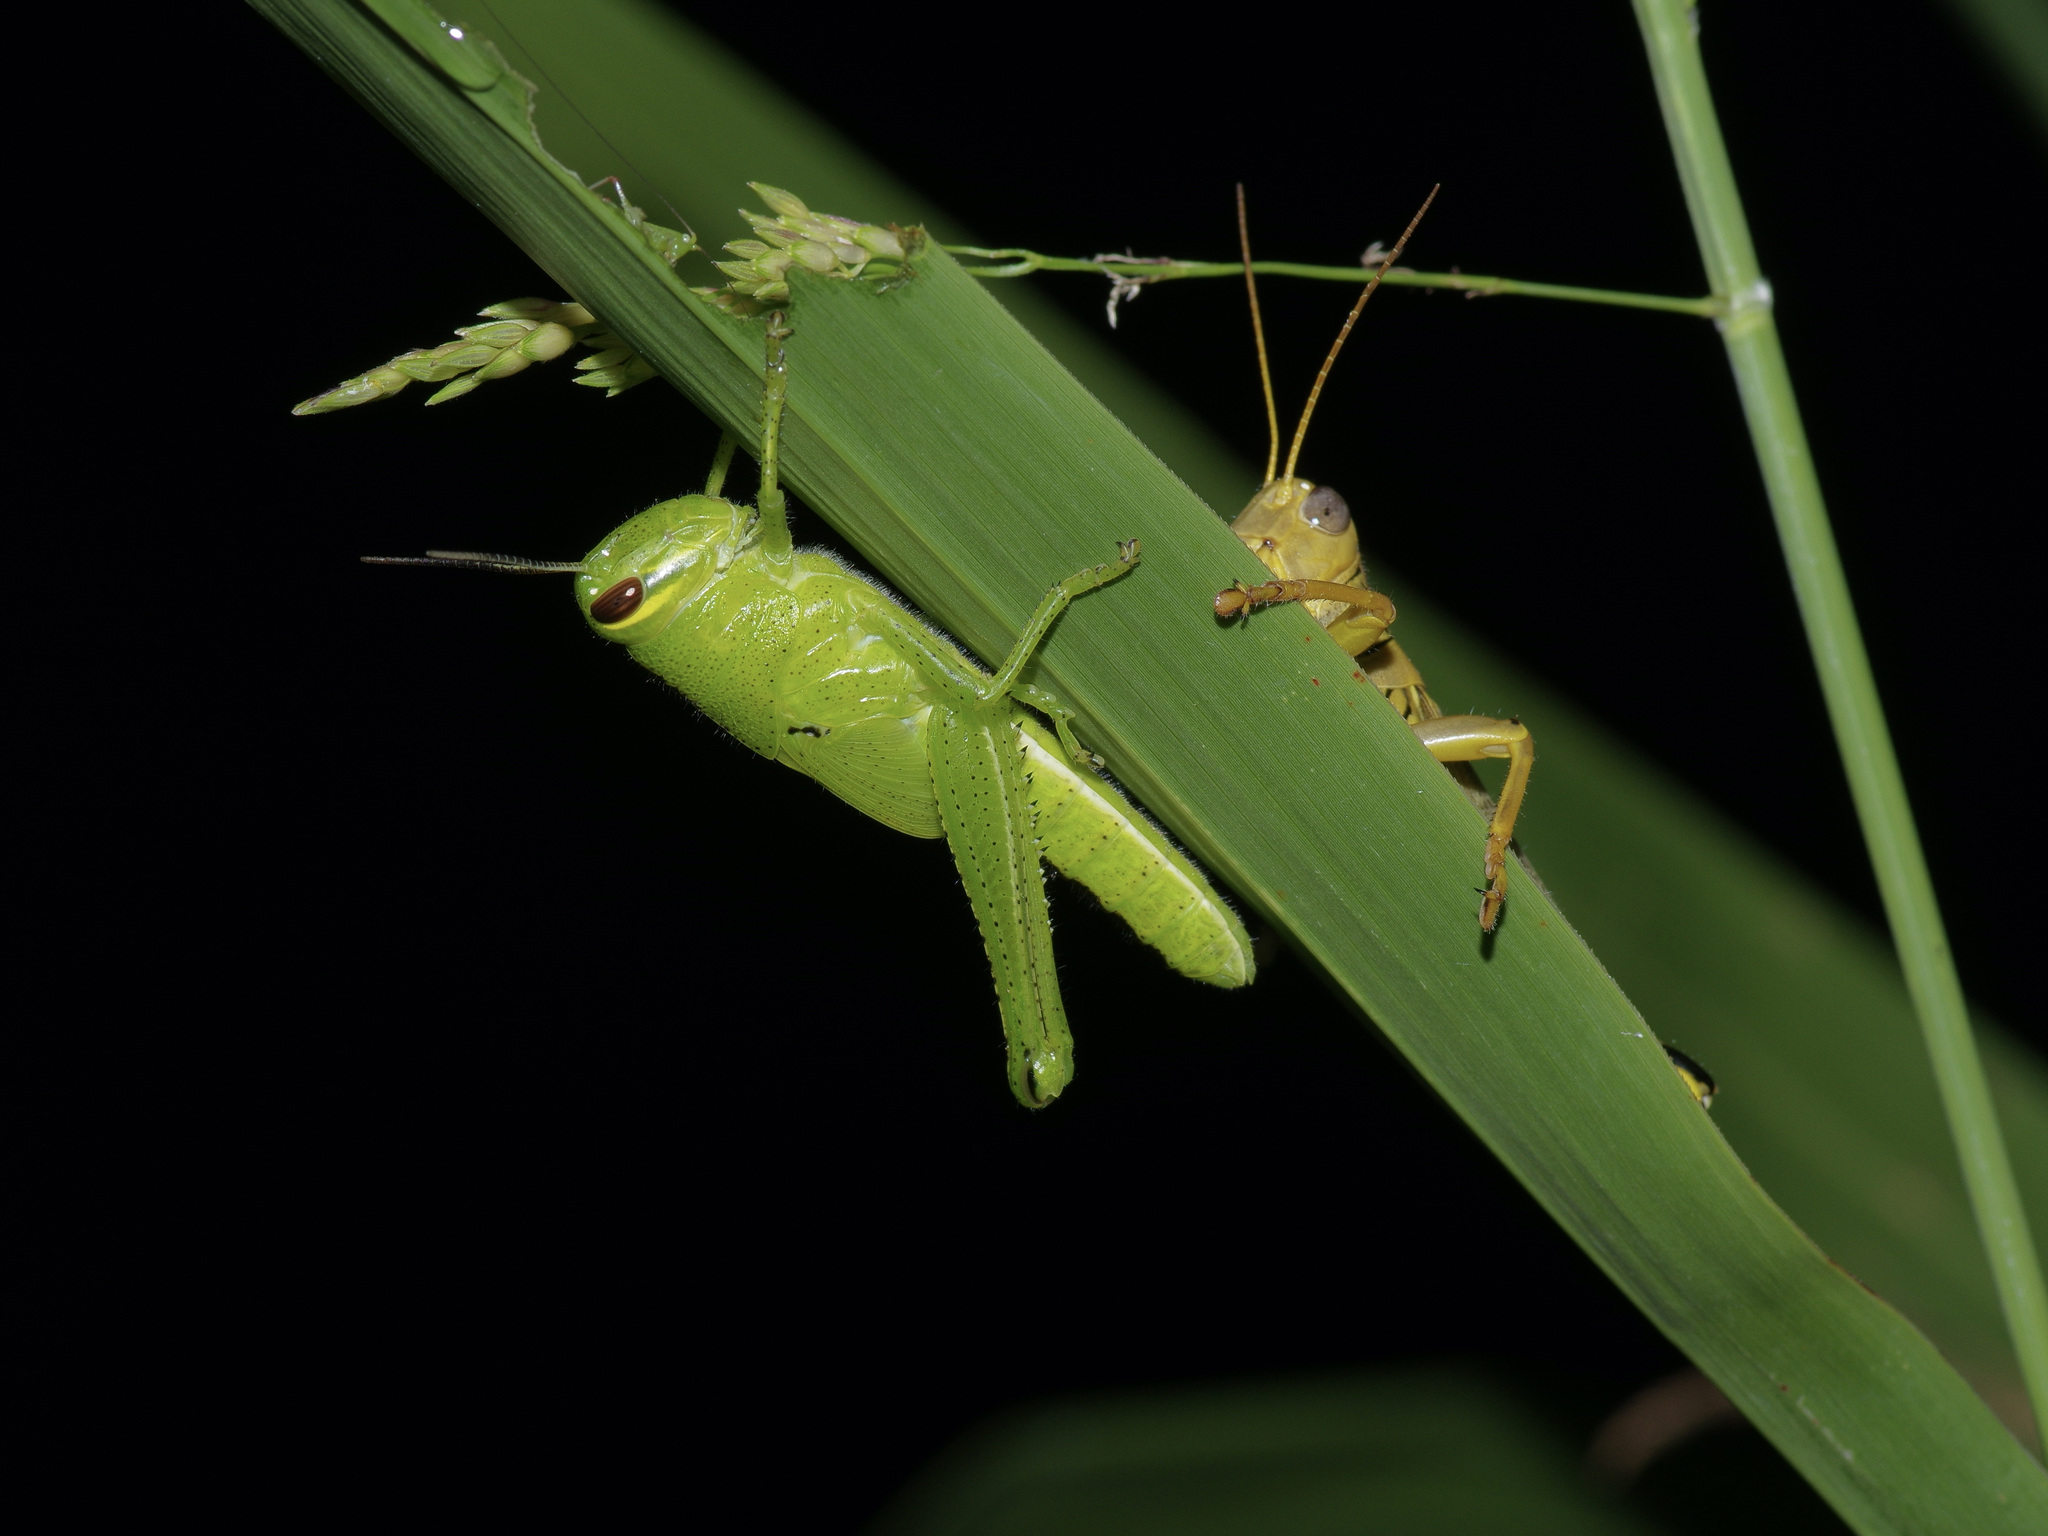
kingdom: Animalia
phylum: Arthropoda
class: Insecta
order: Orthoptera
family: Acrididae
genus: Schistocerca
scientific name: Schistocerca americana
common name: American bird locust
